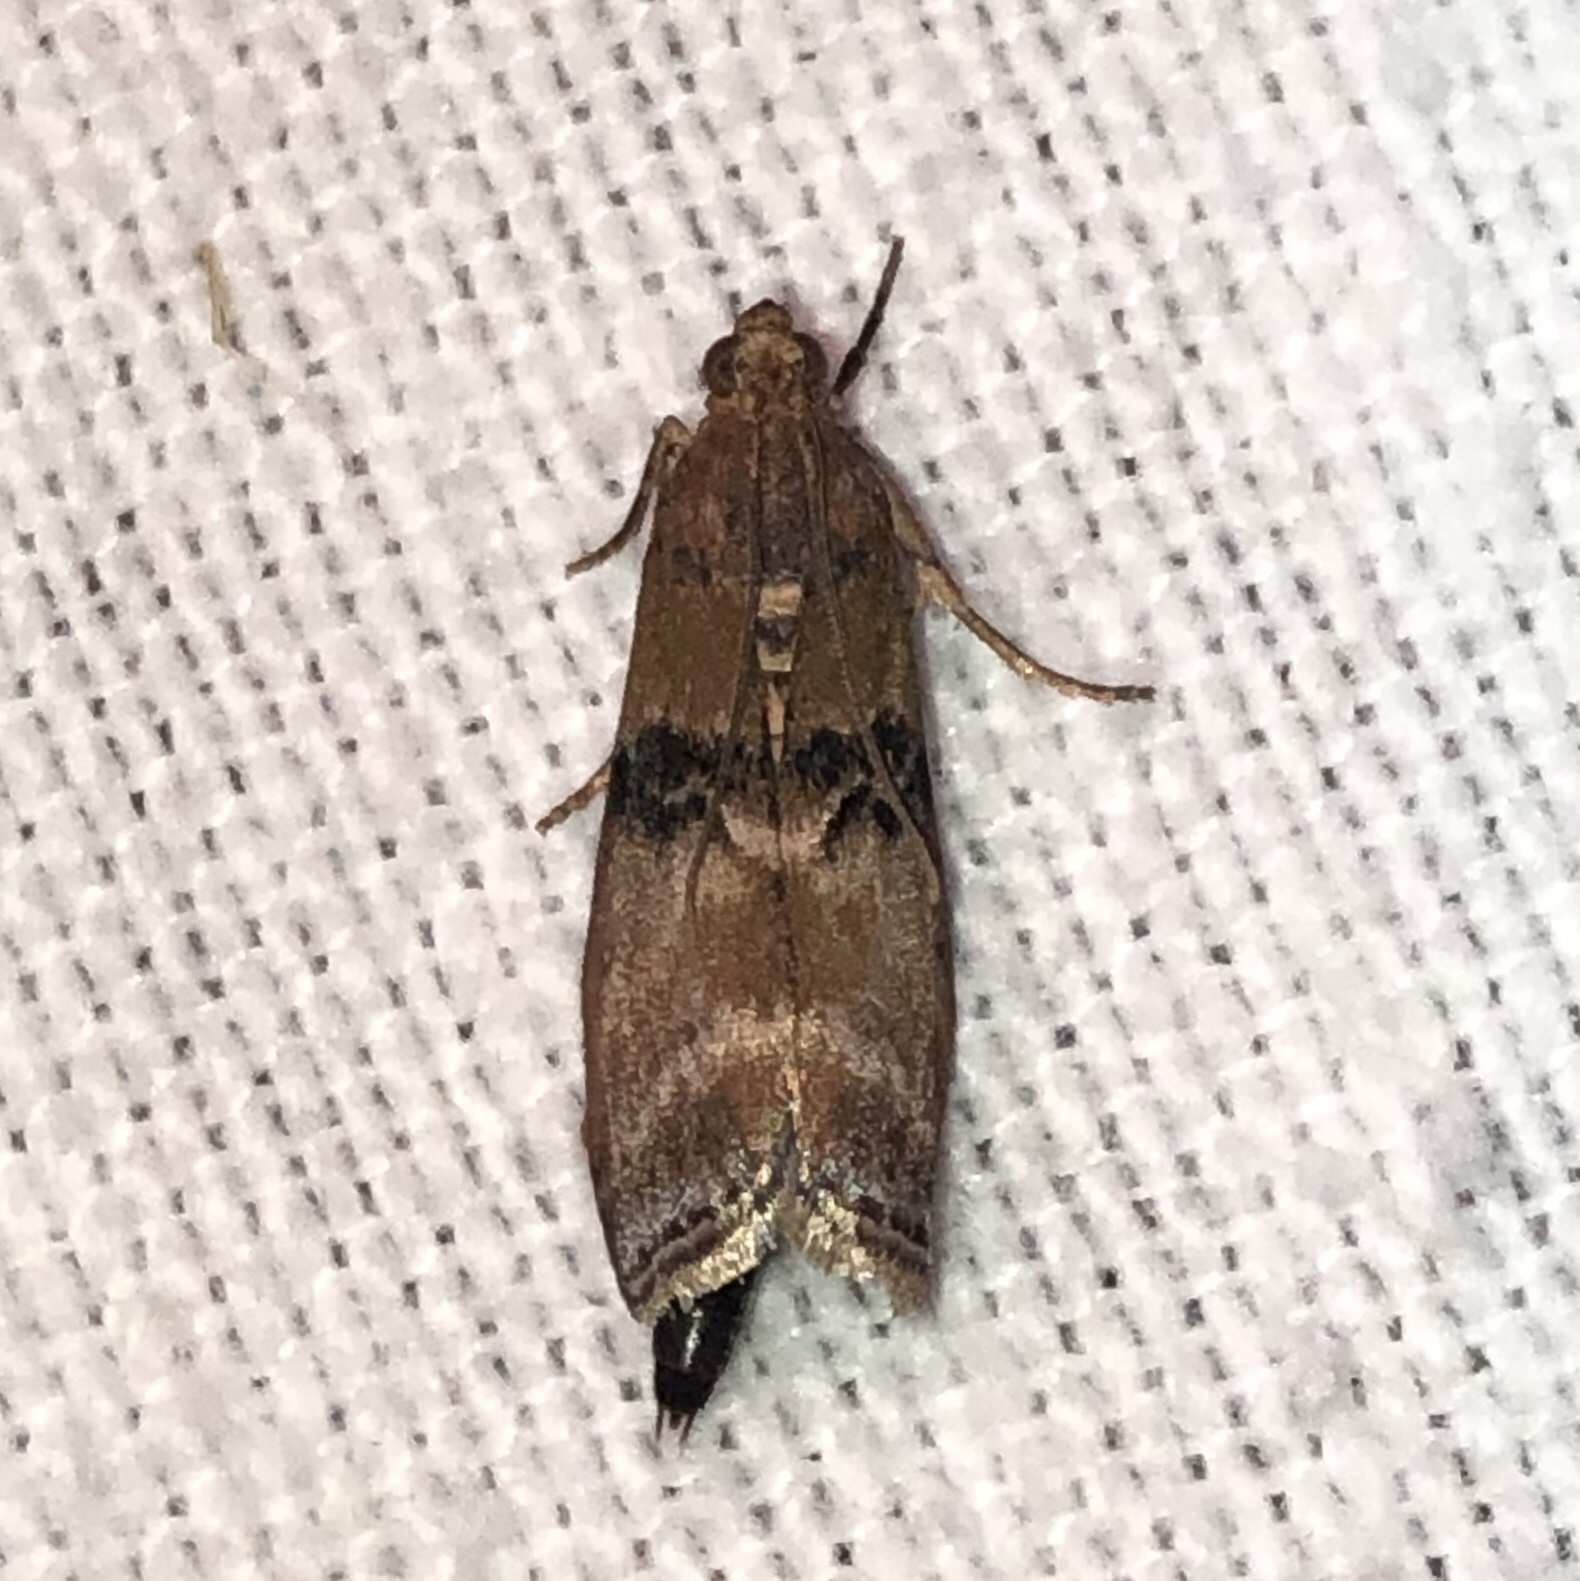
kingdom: Animalia
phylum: Arthropoda
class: Insecta
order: Lepidoptera
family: Pyralidae
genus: Meroptera
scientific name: Meroptera cviatella
